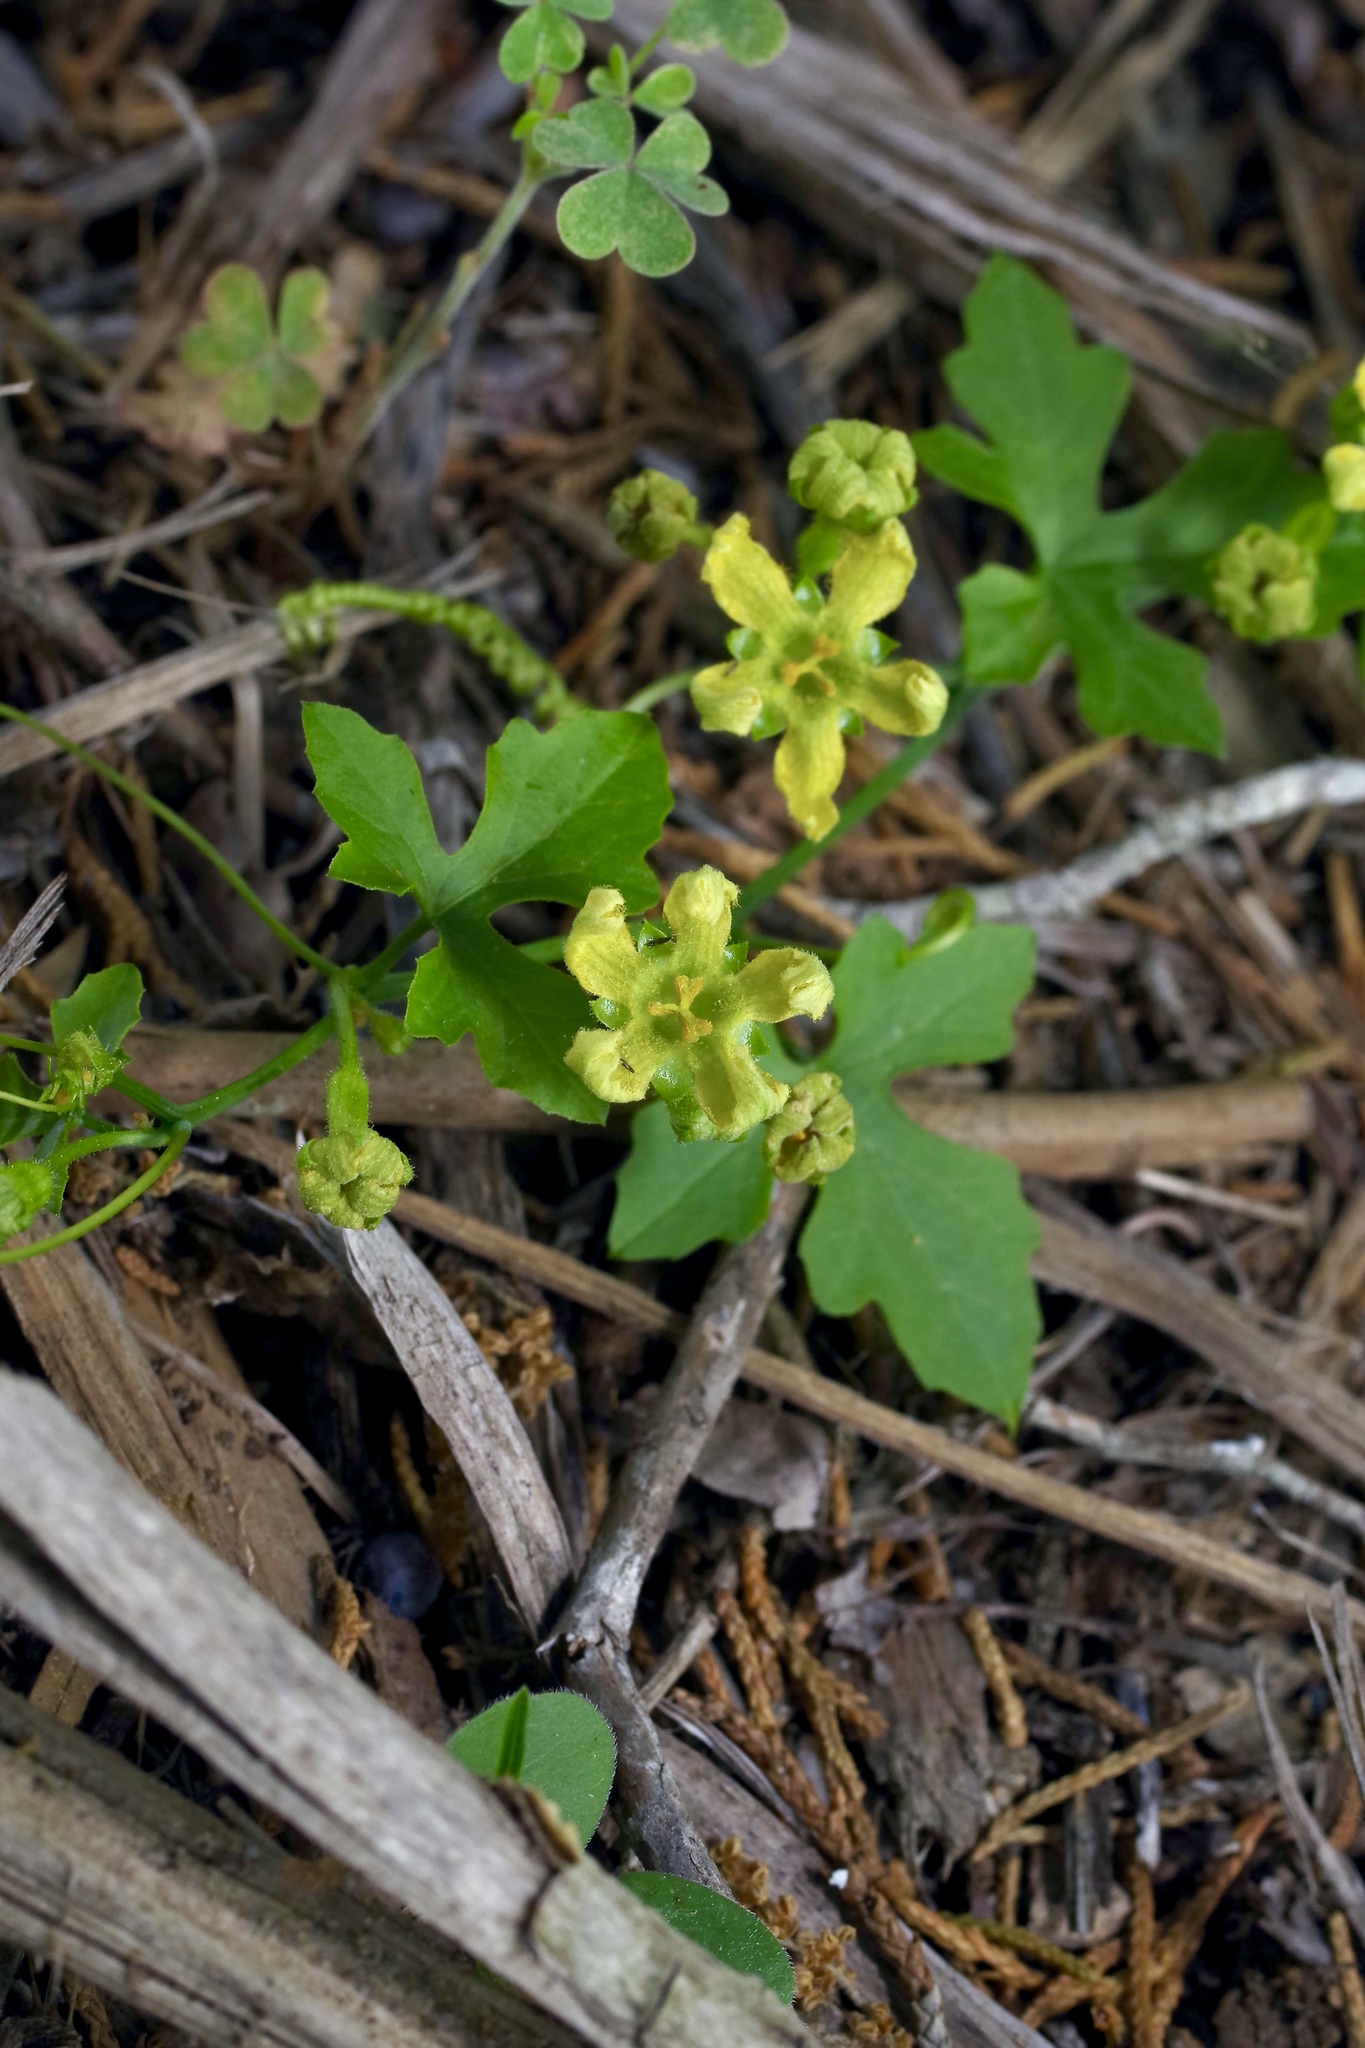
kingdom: Plantae
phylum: Tracheophyta
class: Magnoliopsida
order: Cucurbitales
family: Cucurbitaceae
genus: Ibervillea
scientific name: Ibervillea lindheimeri
